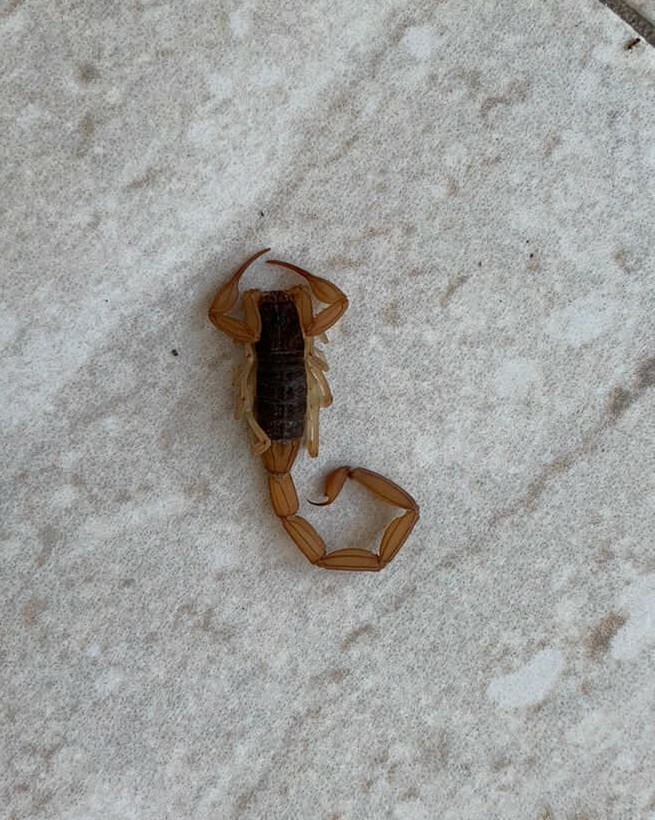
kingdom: Animalia
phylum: Arthropoda
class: Arachnida
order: Scorpiones
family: Buthidae
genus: Centruroides
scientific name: Centruroides ochraceus
